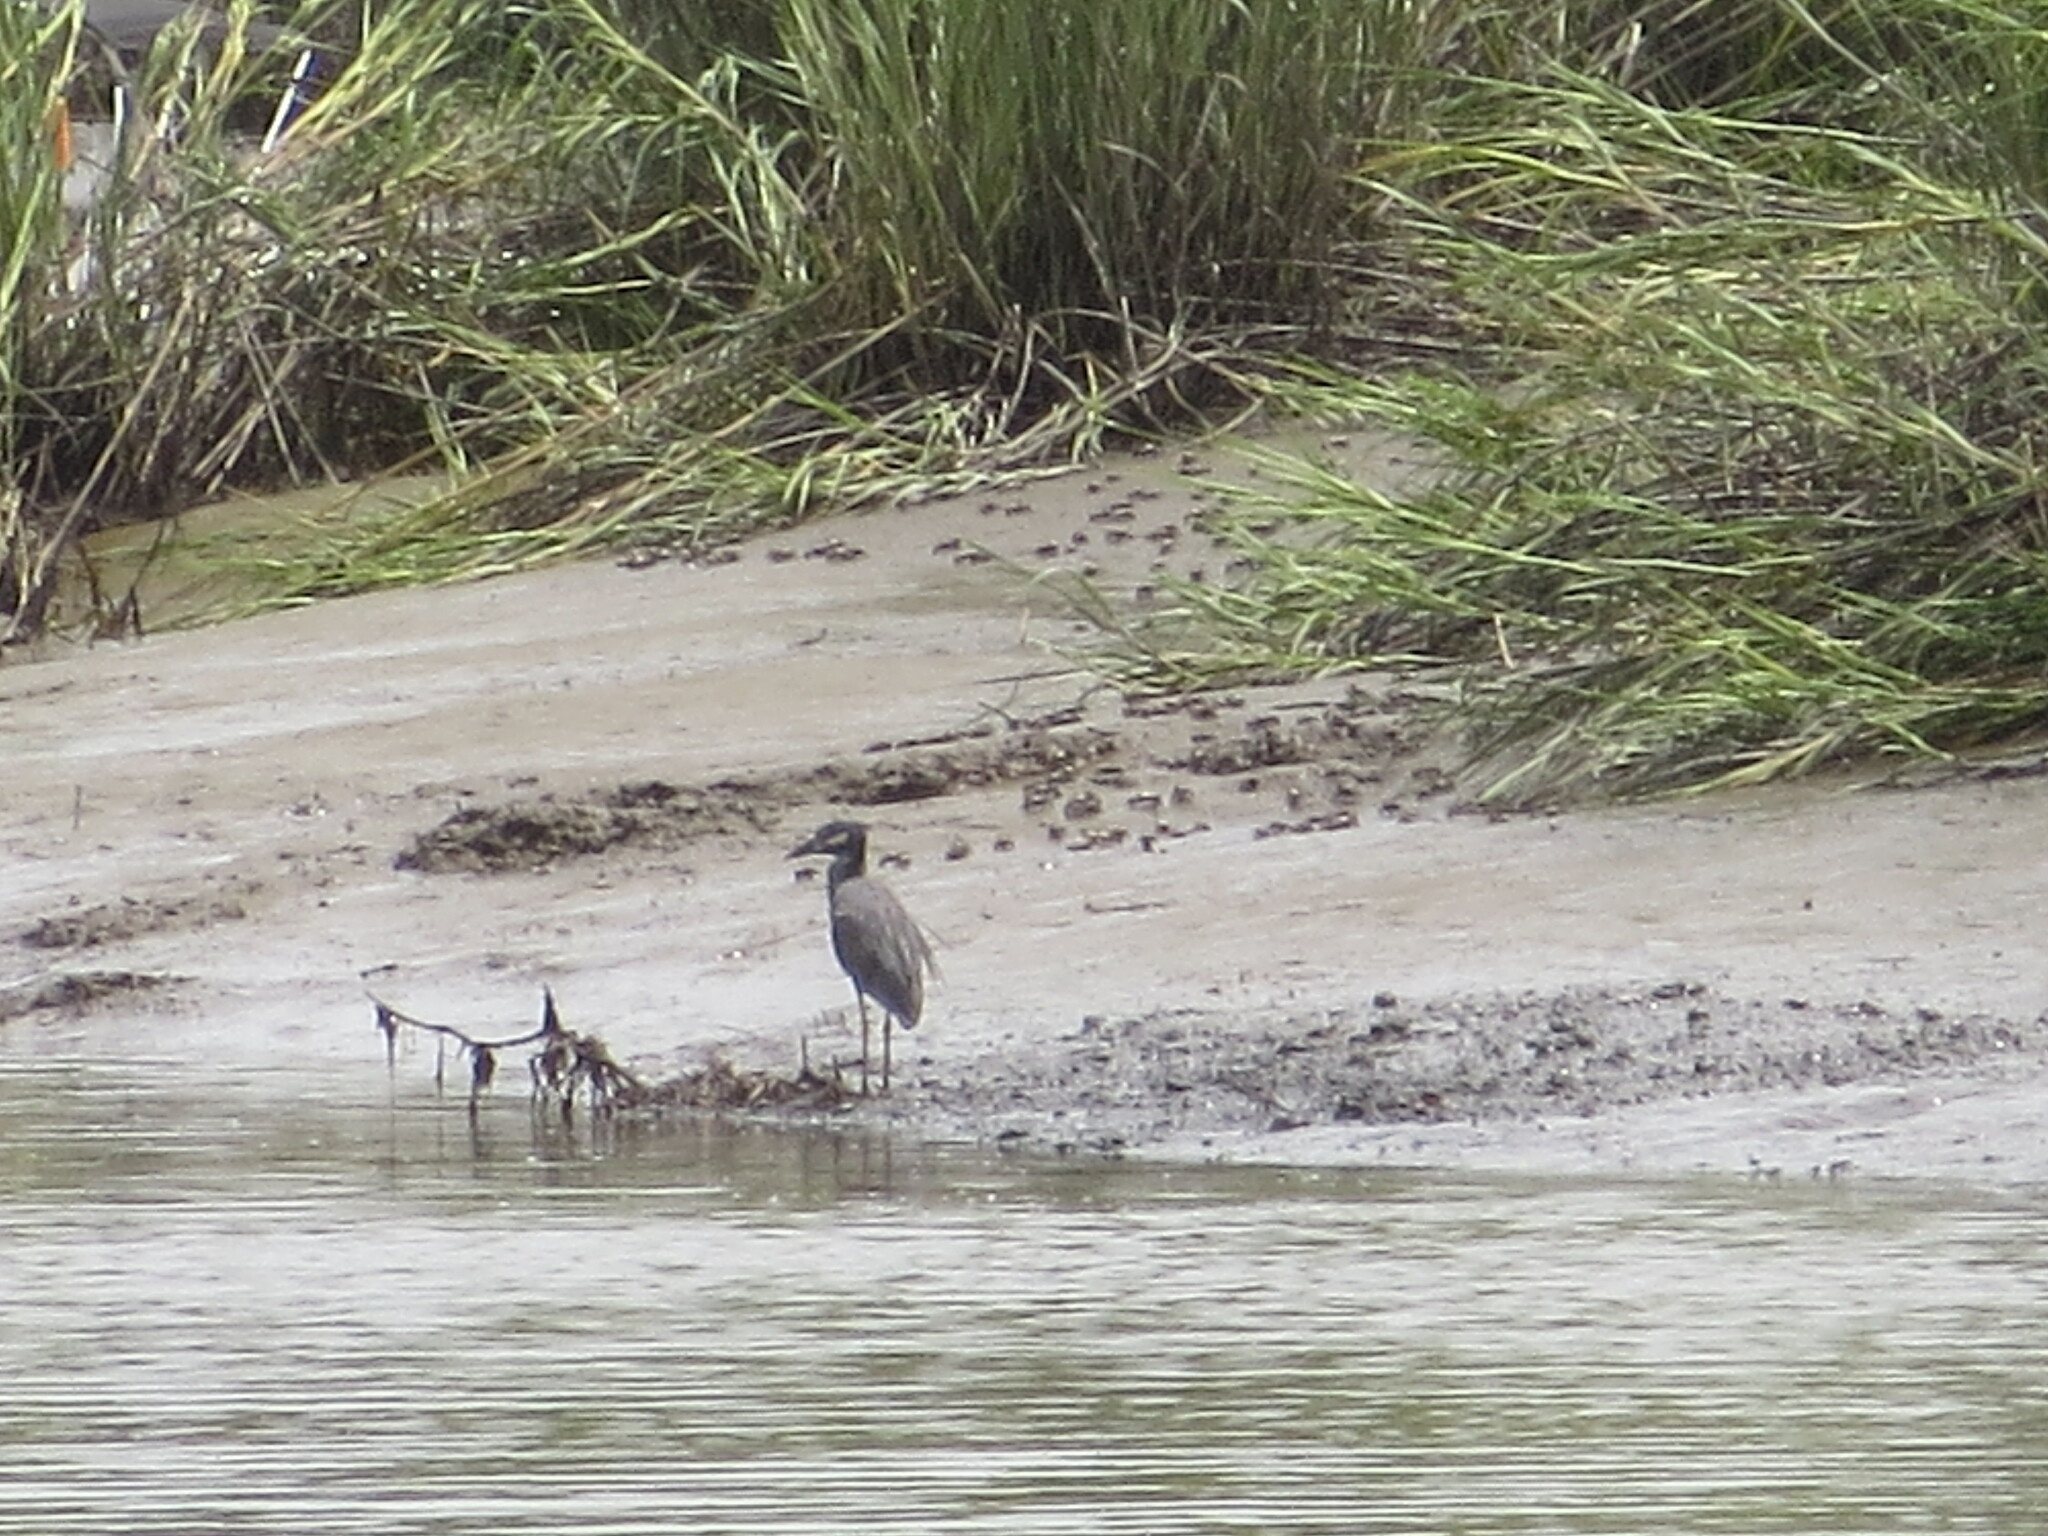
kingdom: Animalia
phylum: Chordata
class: Aves
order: Pelecaniformes
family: Ardeidae
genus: Nyctanassa
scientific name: Nyctanassa violacea
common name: Yellow-crowned night heron
